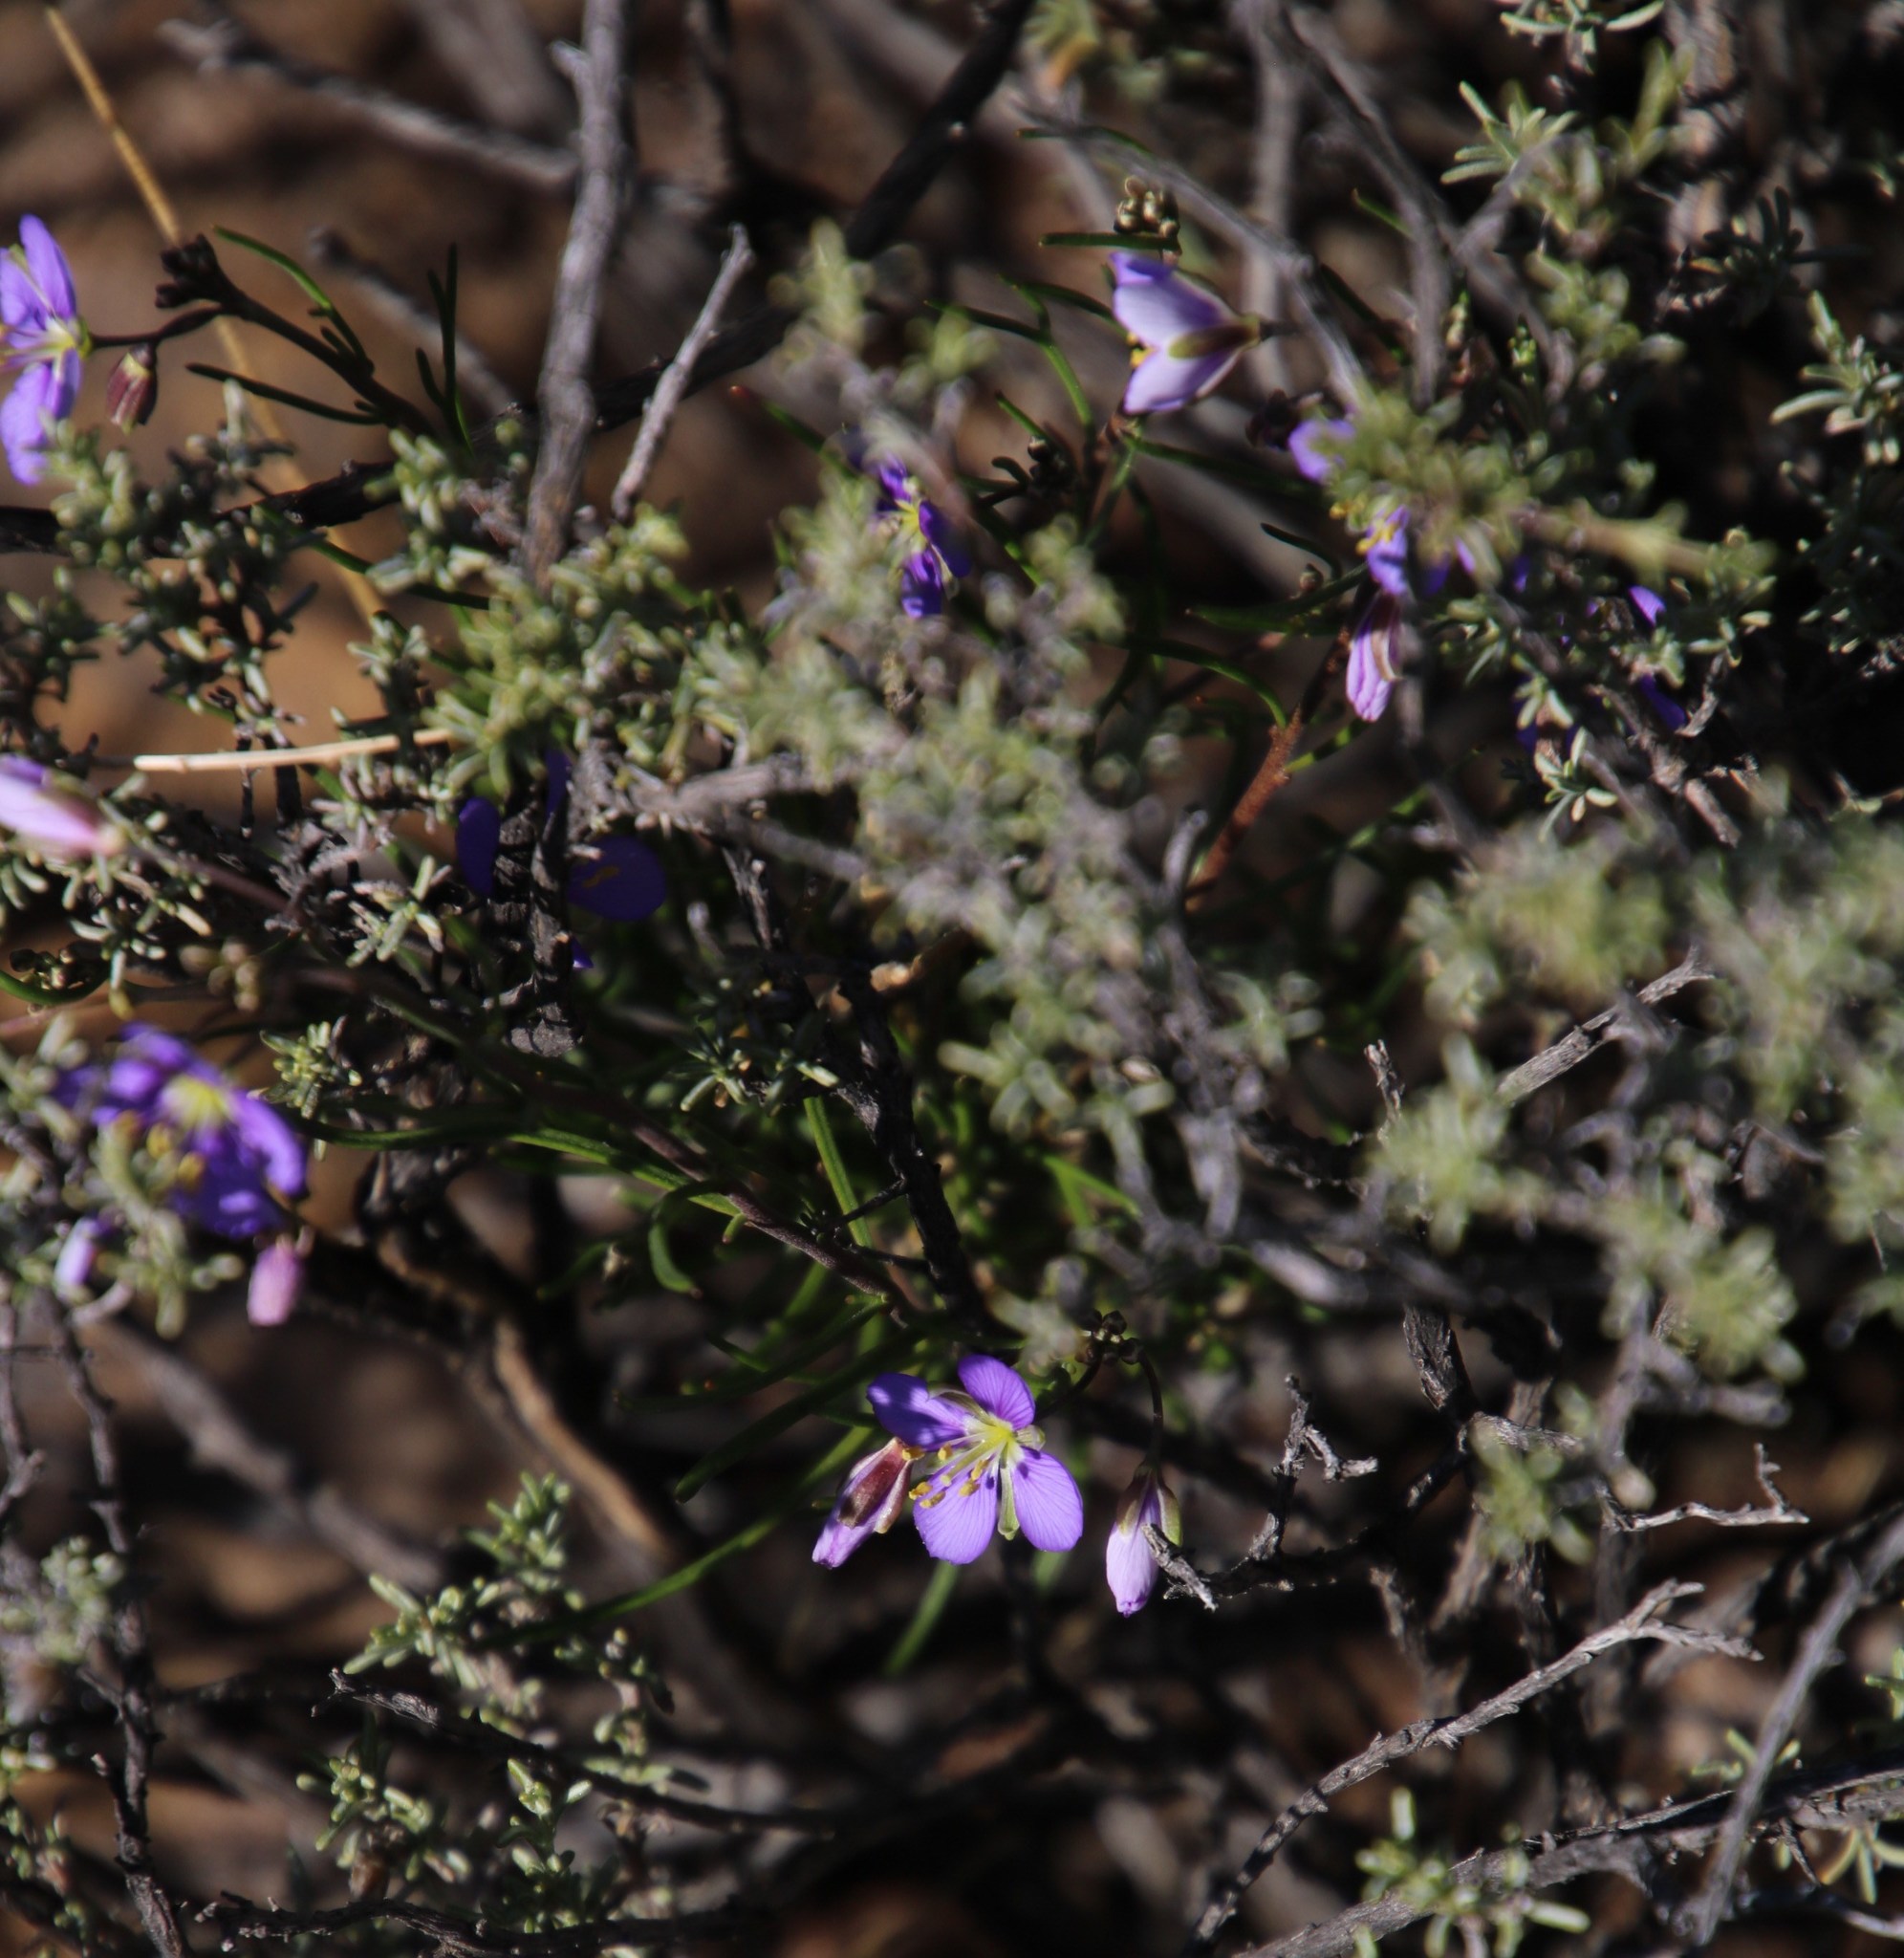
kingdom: Plantae
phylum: Tracheophyta
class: Magnoliopsida
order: Brassicales
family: Brassicaceae
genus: Heliophila
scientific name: Heliophila suavissima
